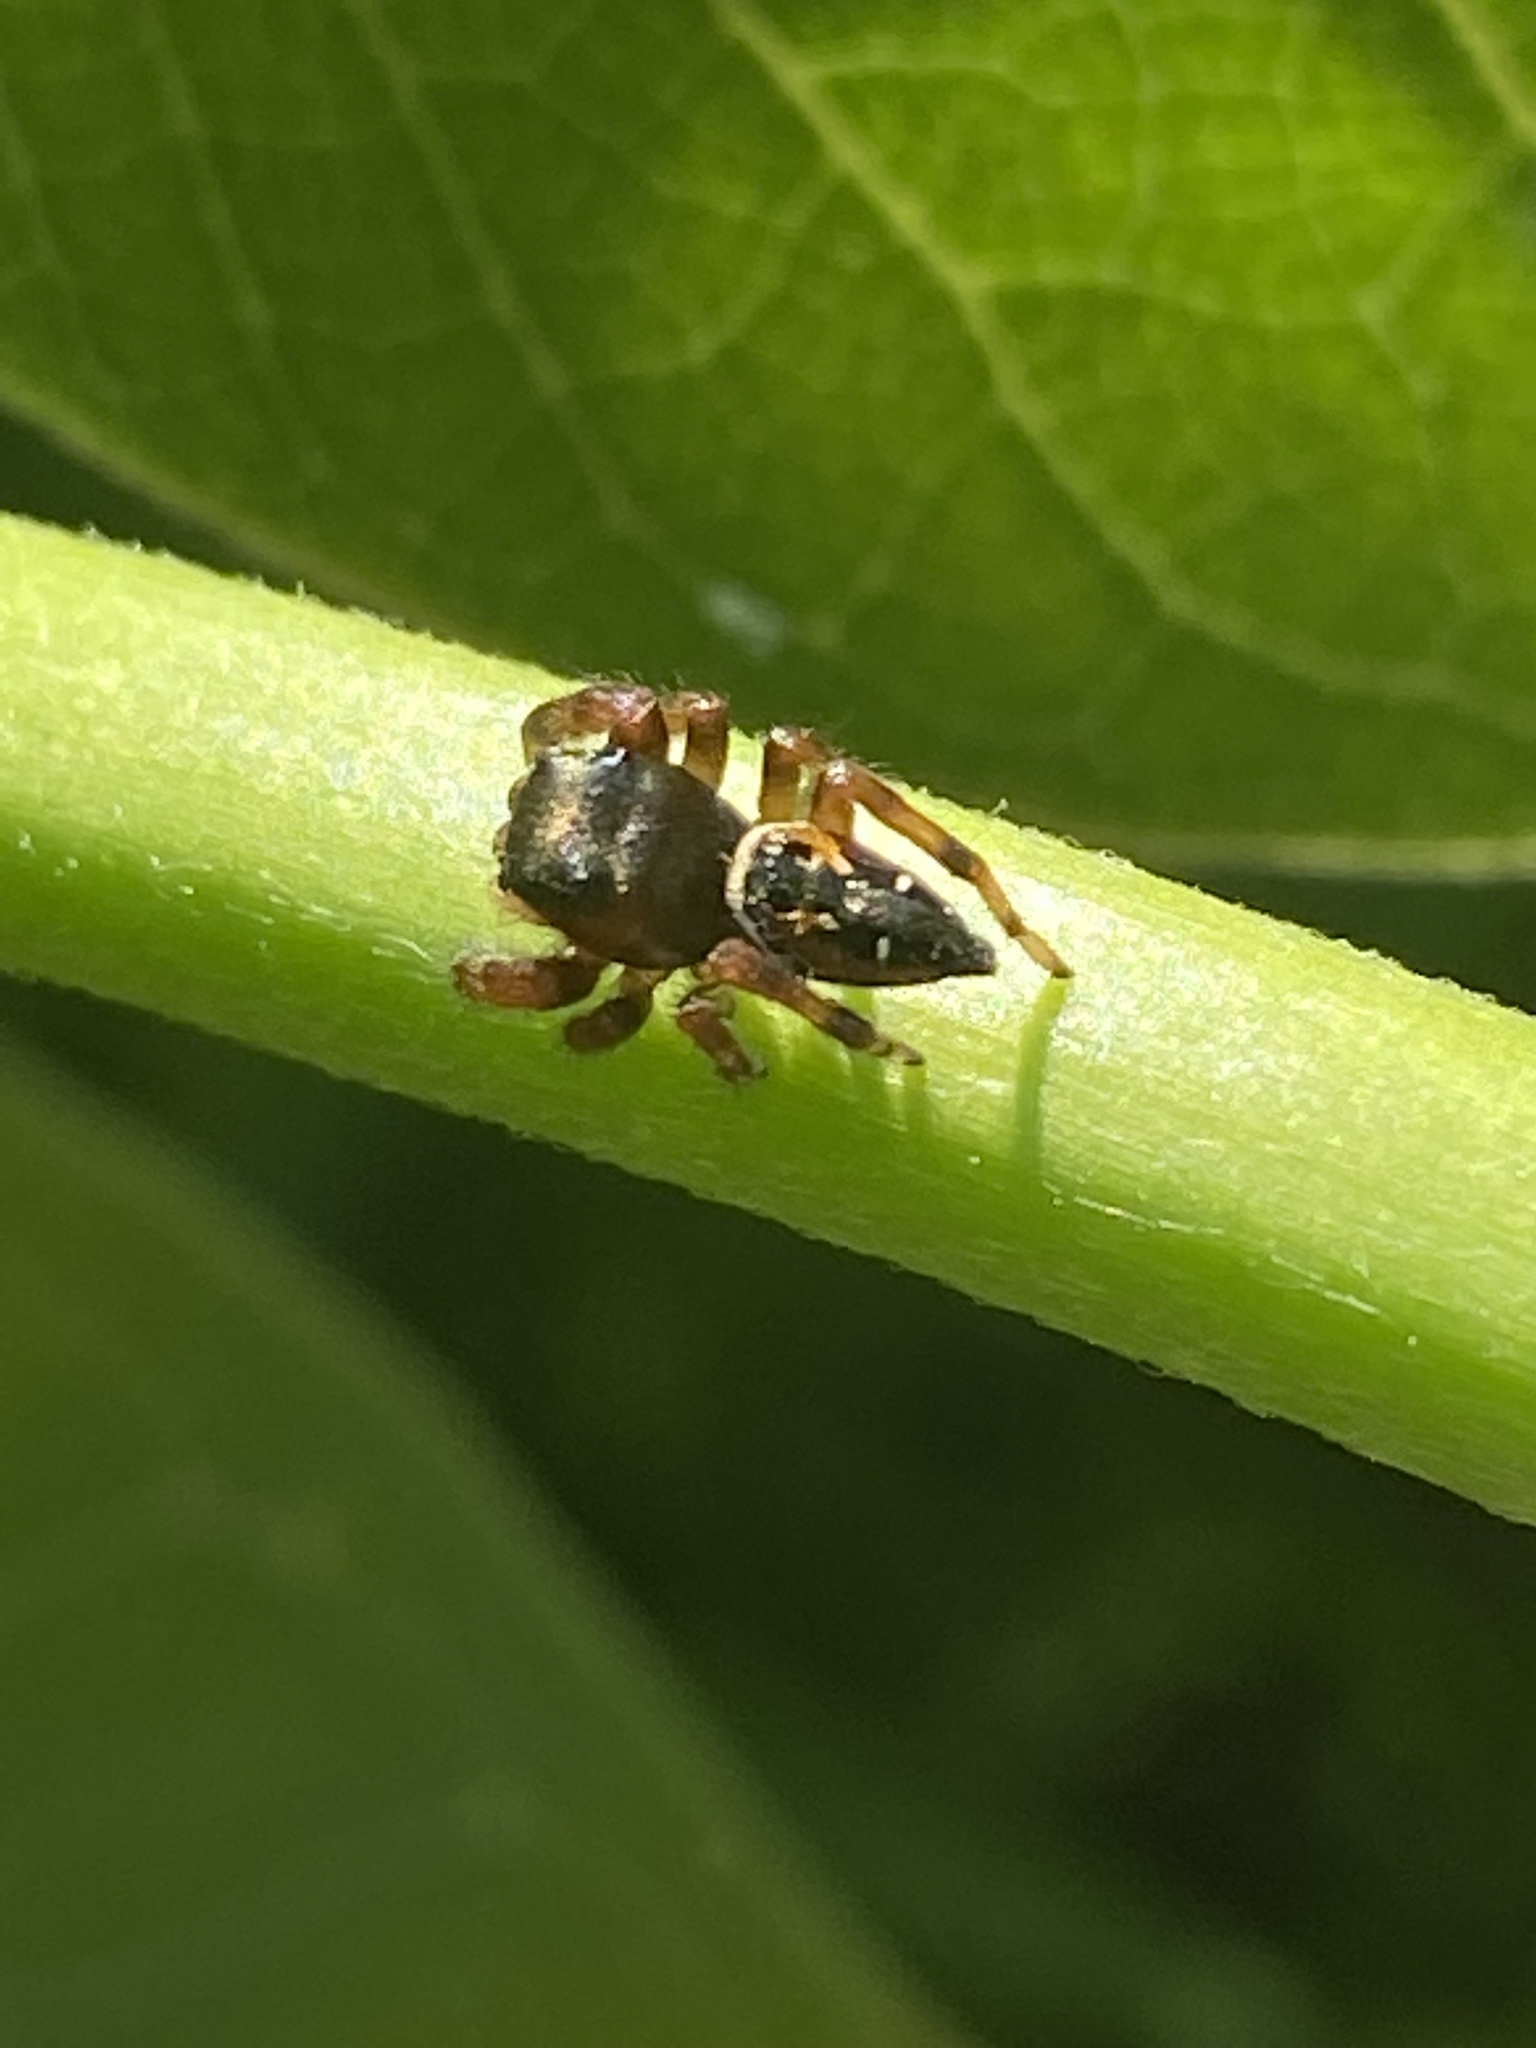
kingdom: Animalia
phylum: Arthropoda
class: Arachnida
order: Araneae
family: Salticidae
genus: Phidippus
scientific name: Phidippus clarus
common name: Brilliant jumping spider
